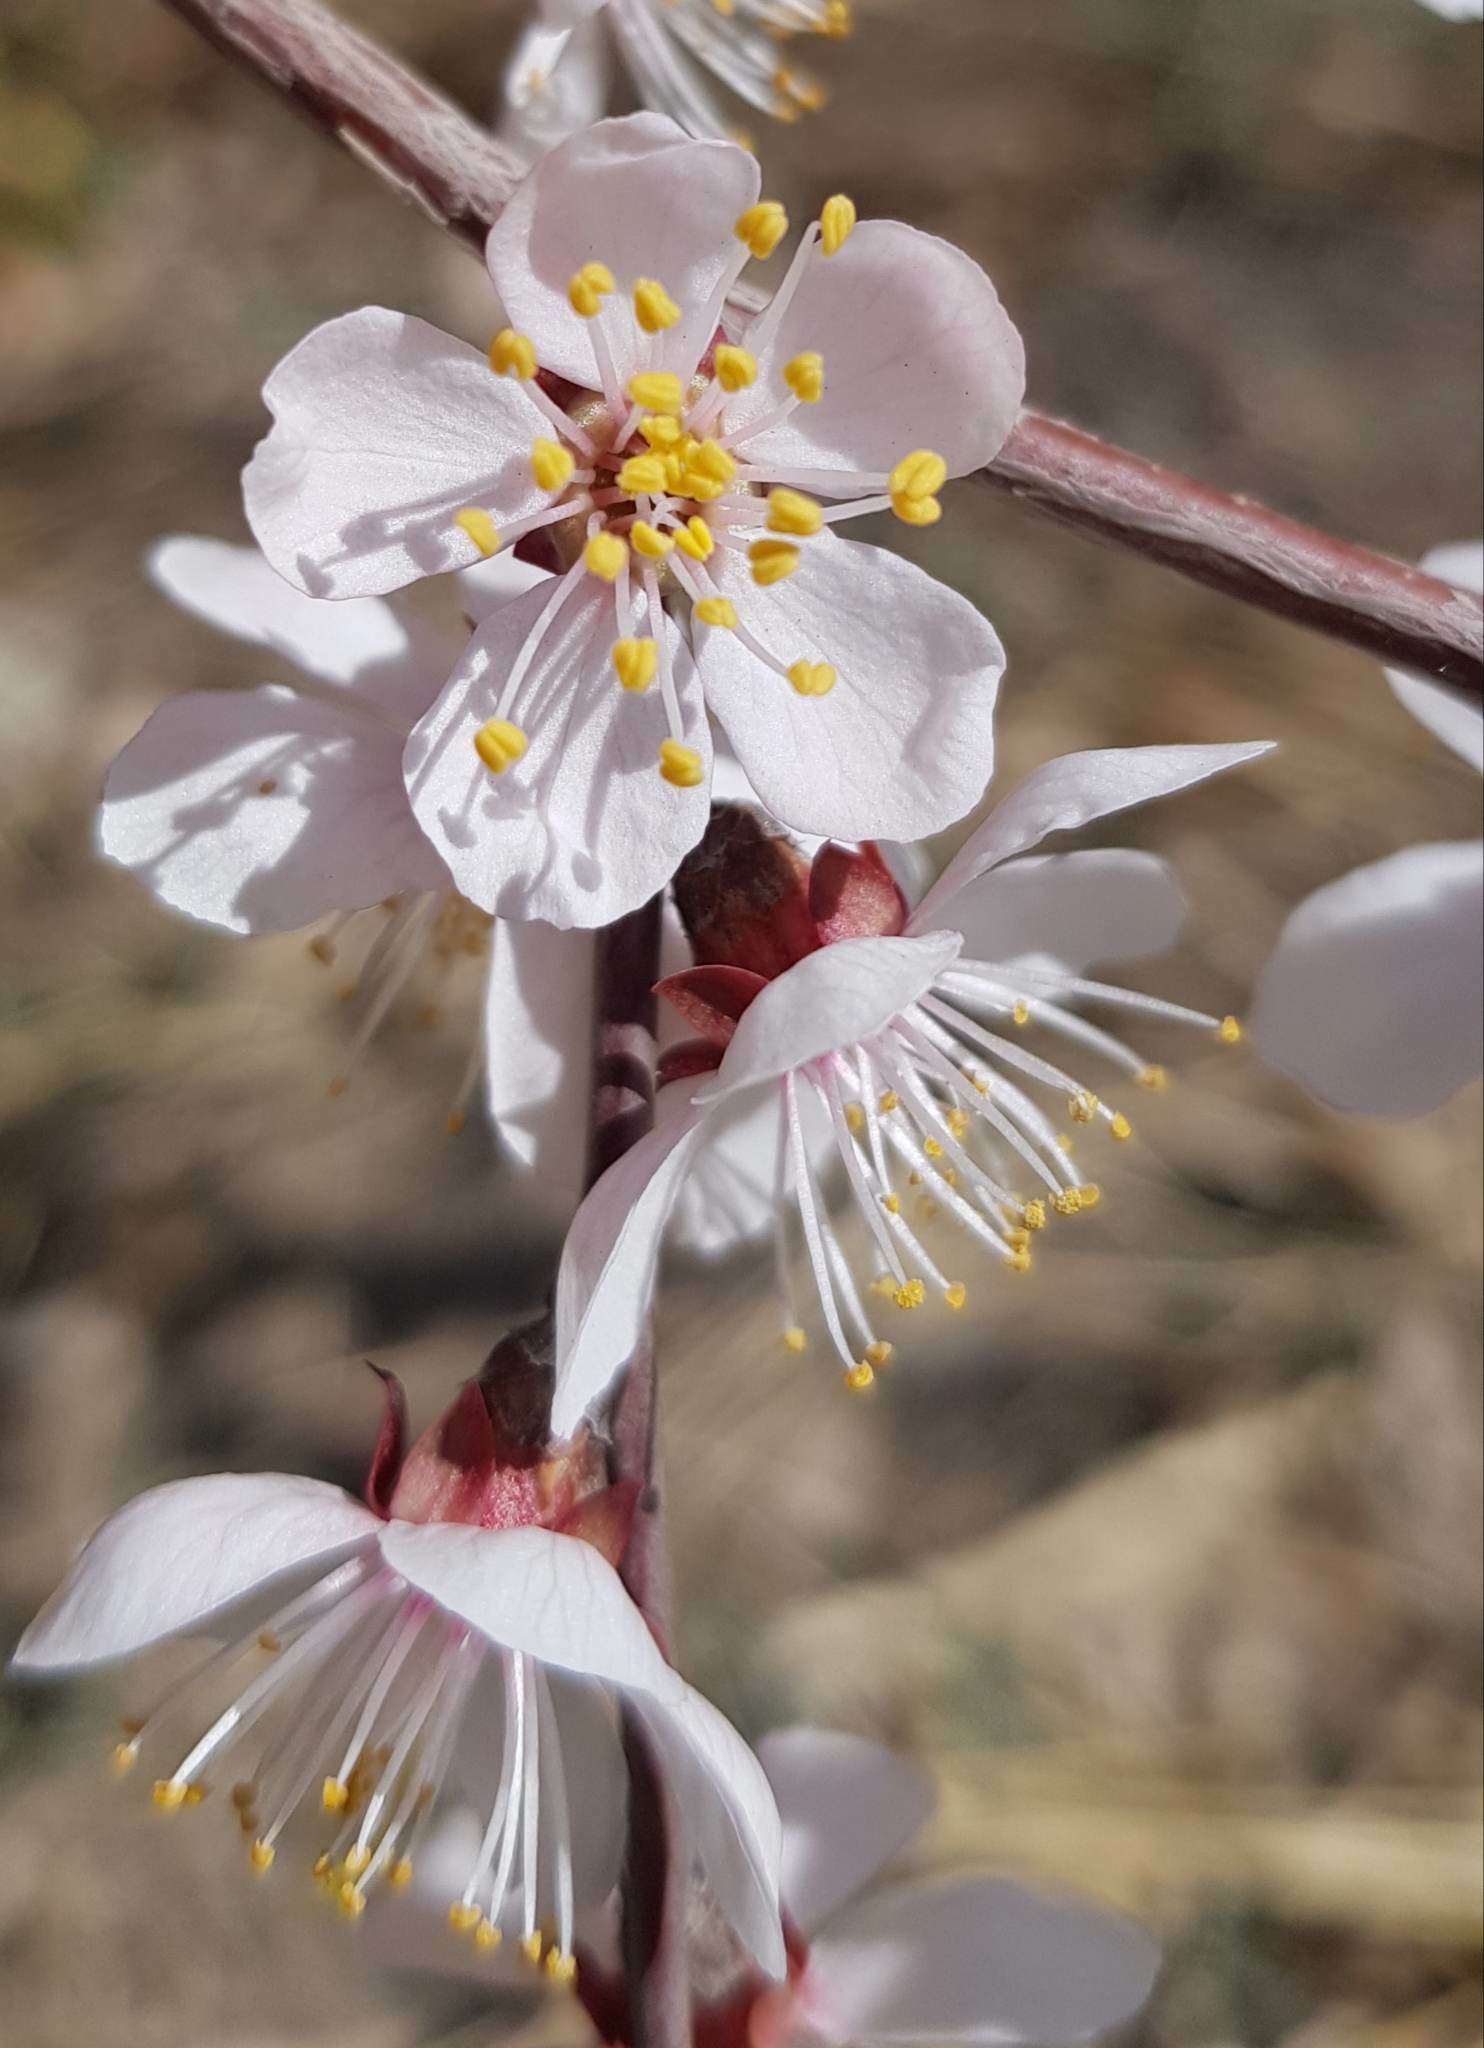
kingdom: Plantae
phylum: Tracheophyta
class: Magnoliopsida
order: Rosales
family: Rosaceae
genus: Prunus
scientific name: Prunus sibirica
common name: Siberian apricot
